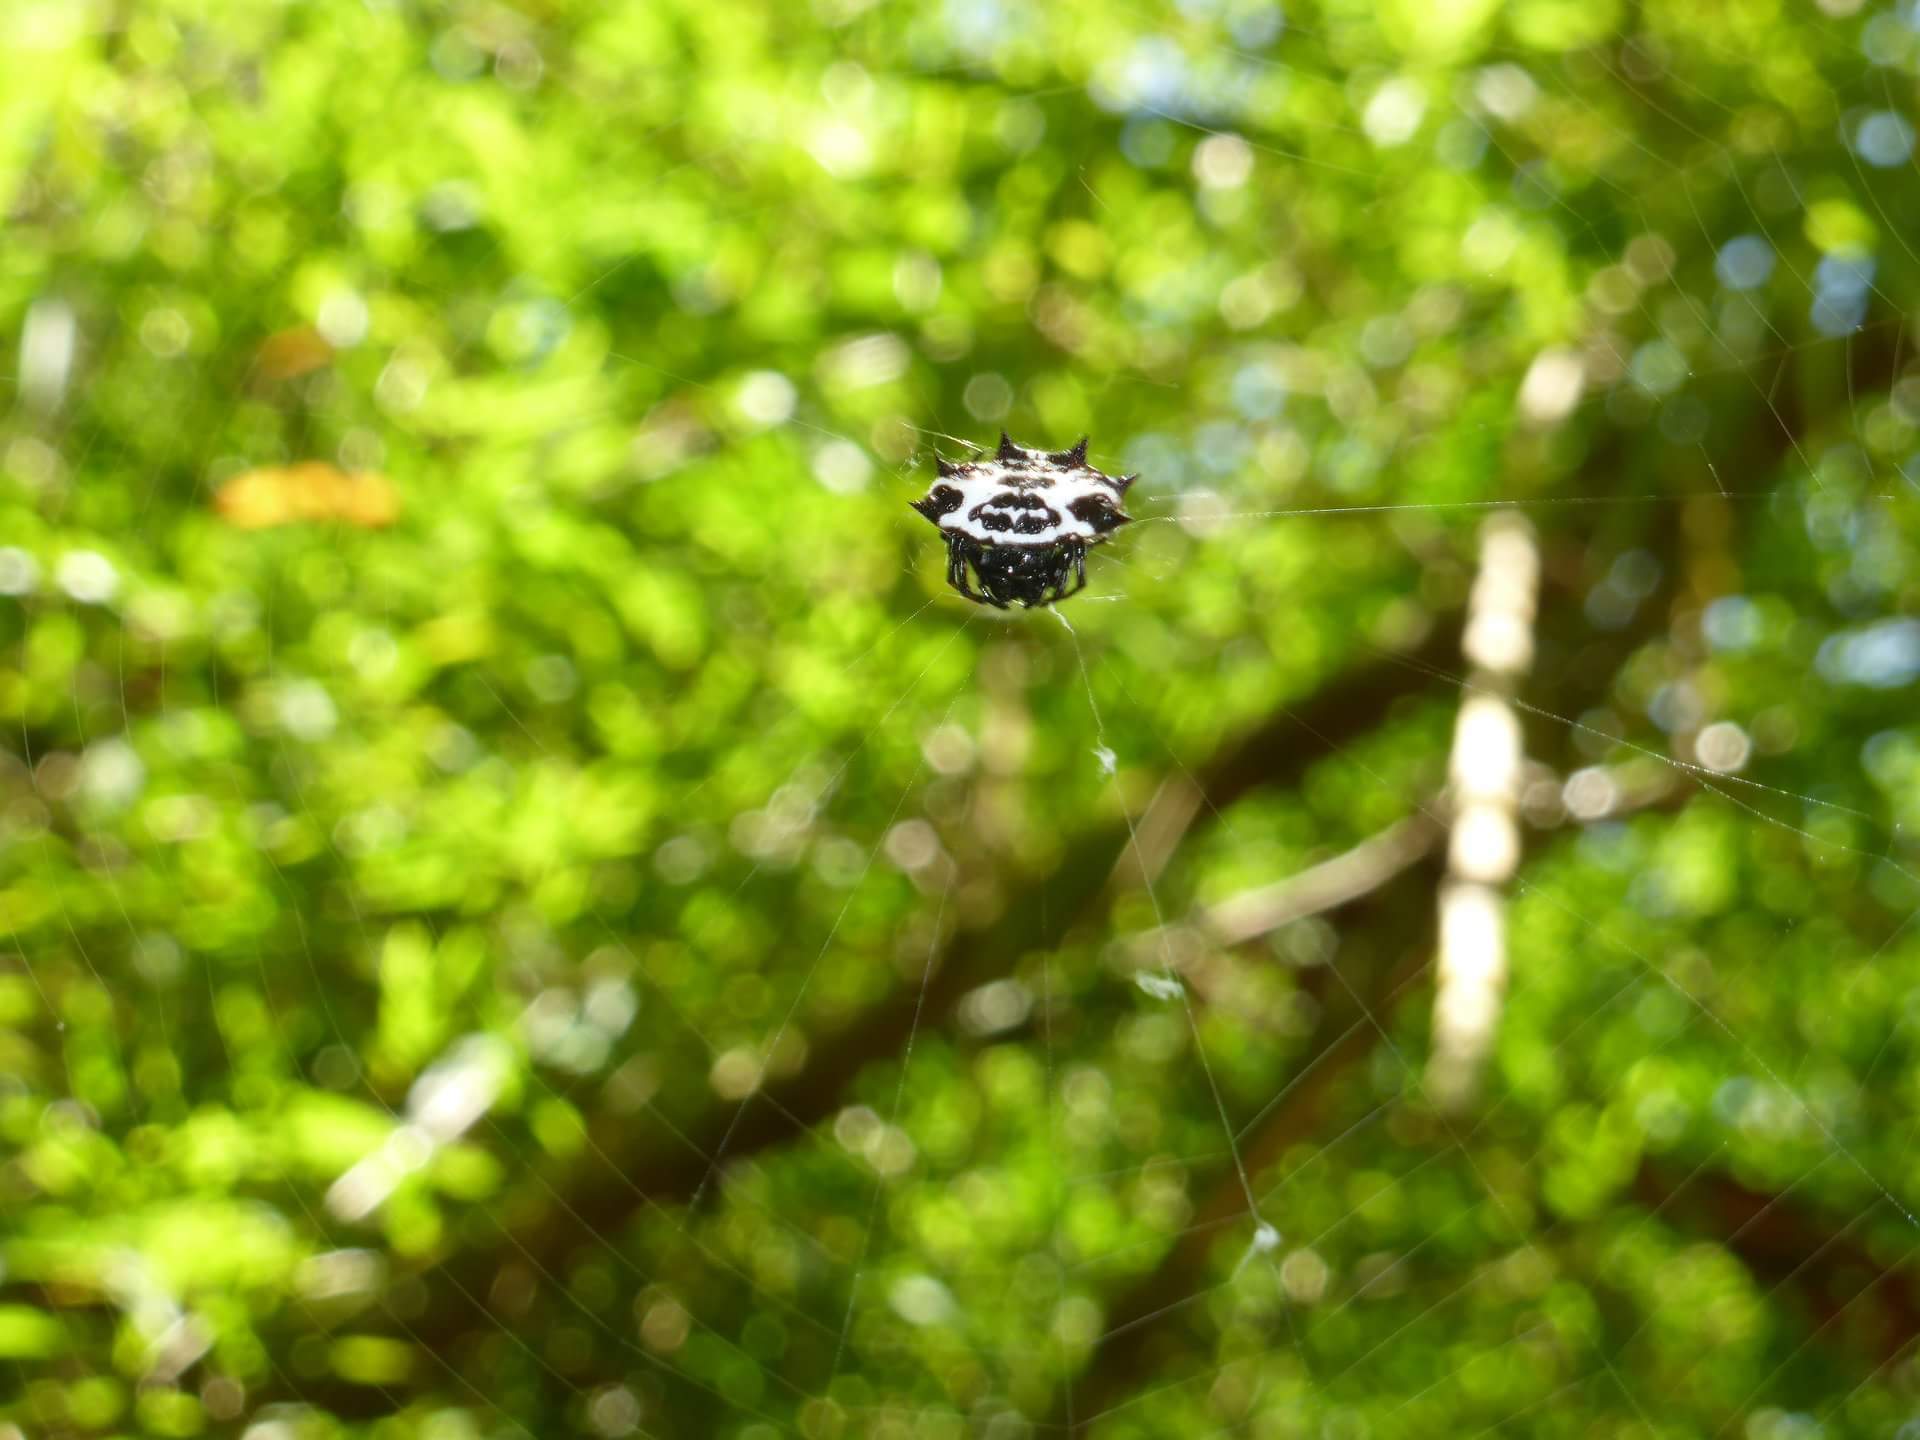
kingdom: Animalia
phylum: Arthropoda
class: Arachnida
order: Araneae
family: Araneidae
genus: Gasteracantha
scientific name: Gasteracantha cancriformis
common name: Orb weavers
